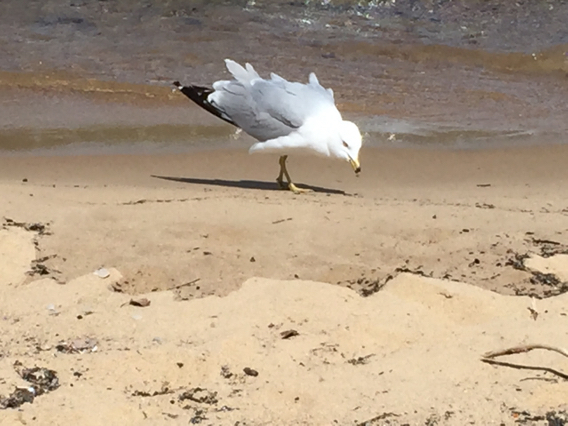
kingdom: Animalia
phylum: Chordata
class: Aves
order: Charadriiformes
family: Laridae
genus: Larus
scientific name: Larus delawarensis
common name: Ring-billed gull
